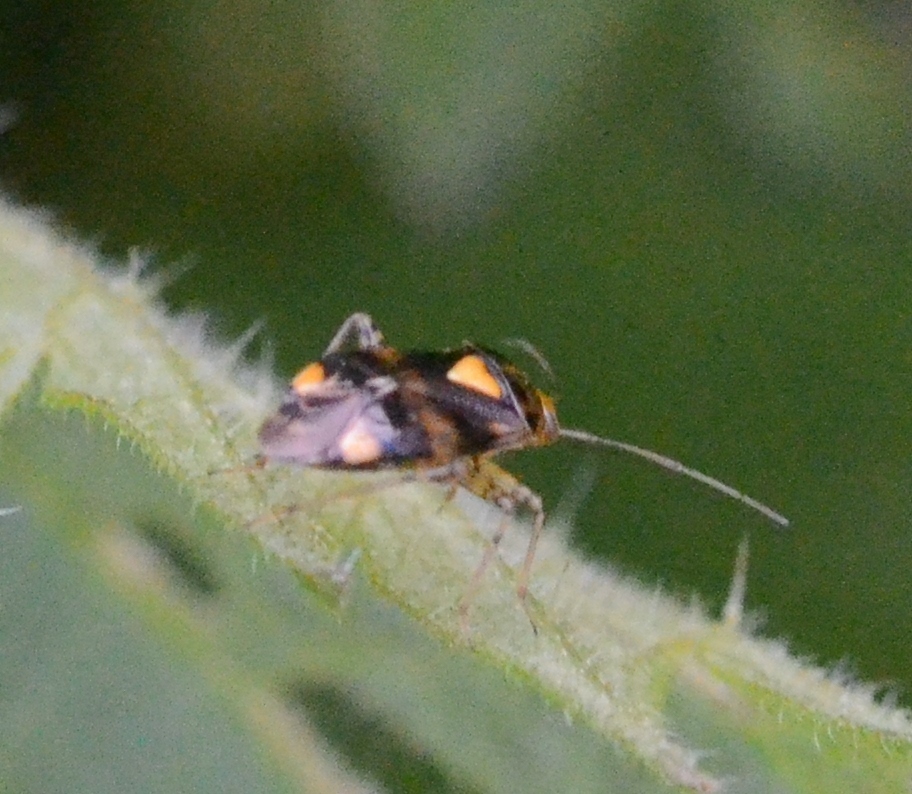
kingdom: Animalia
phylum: Arthropoda
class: Insecta
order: Hemiptera
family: Miridae
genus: Liocoris
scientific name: Liocoris tripustulatus
